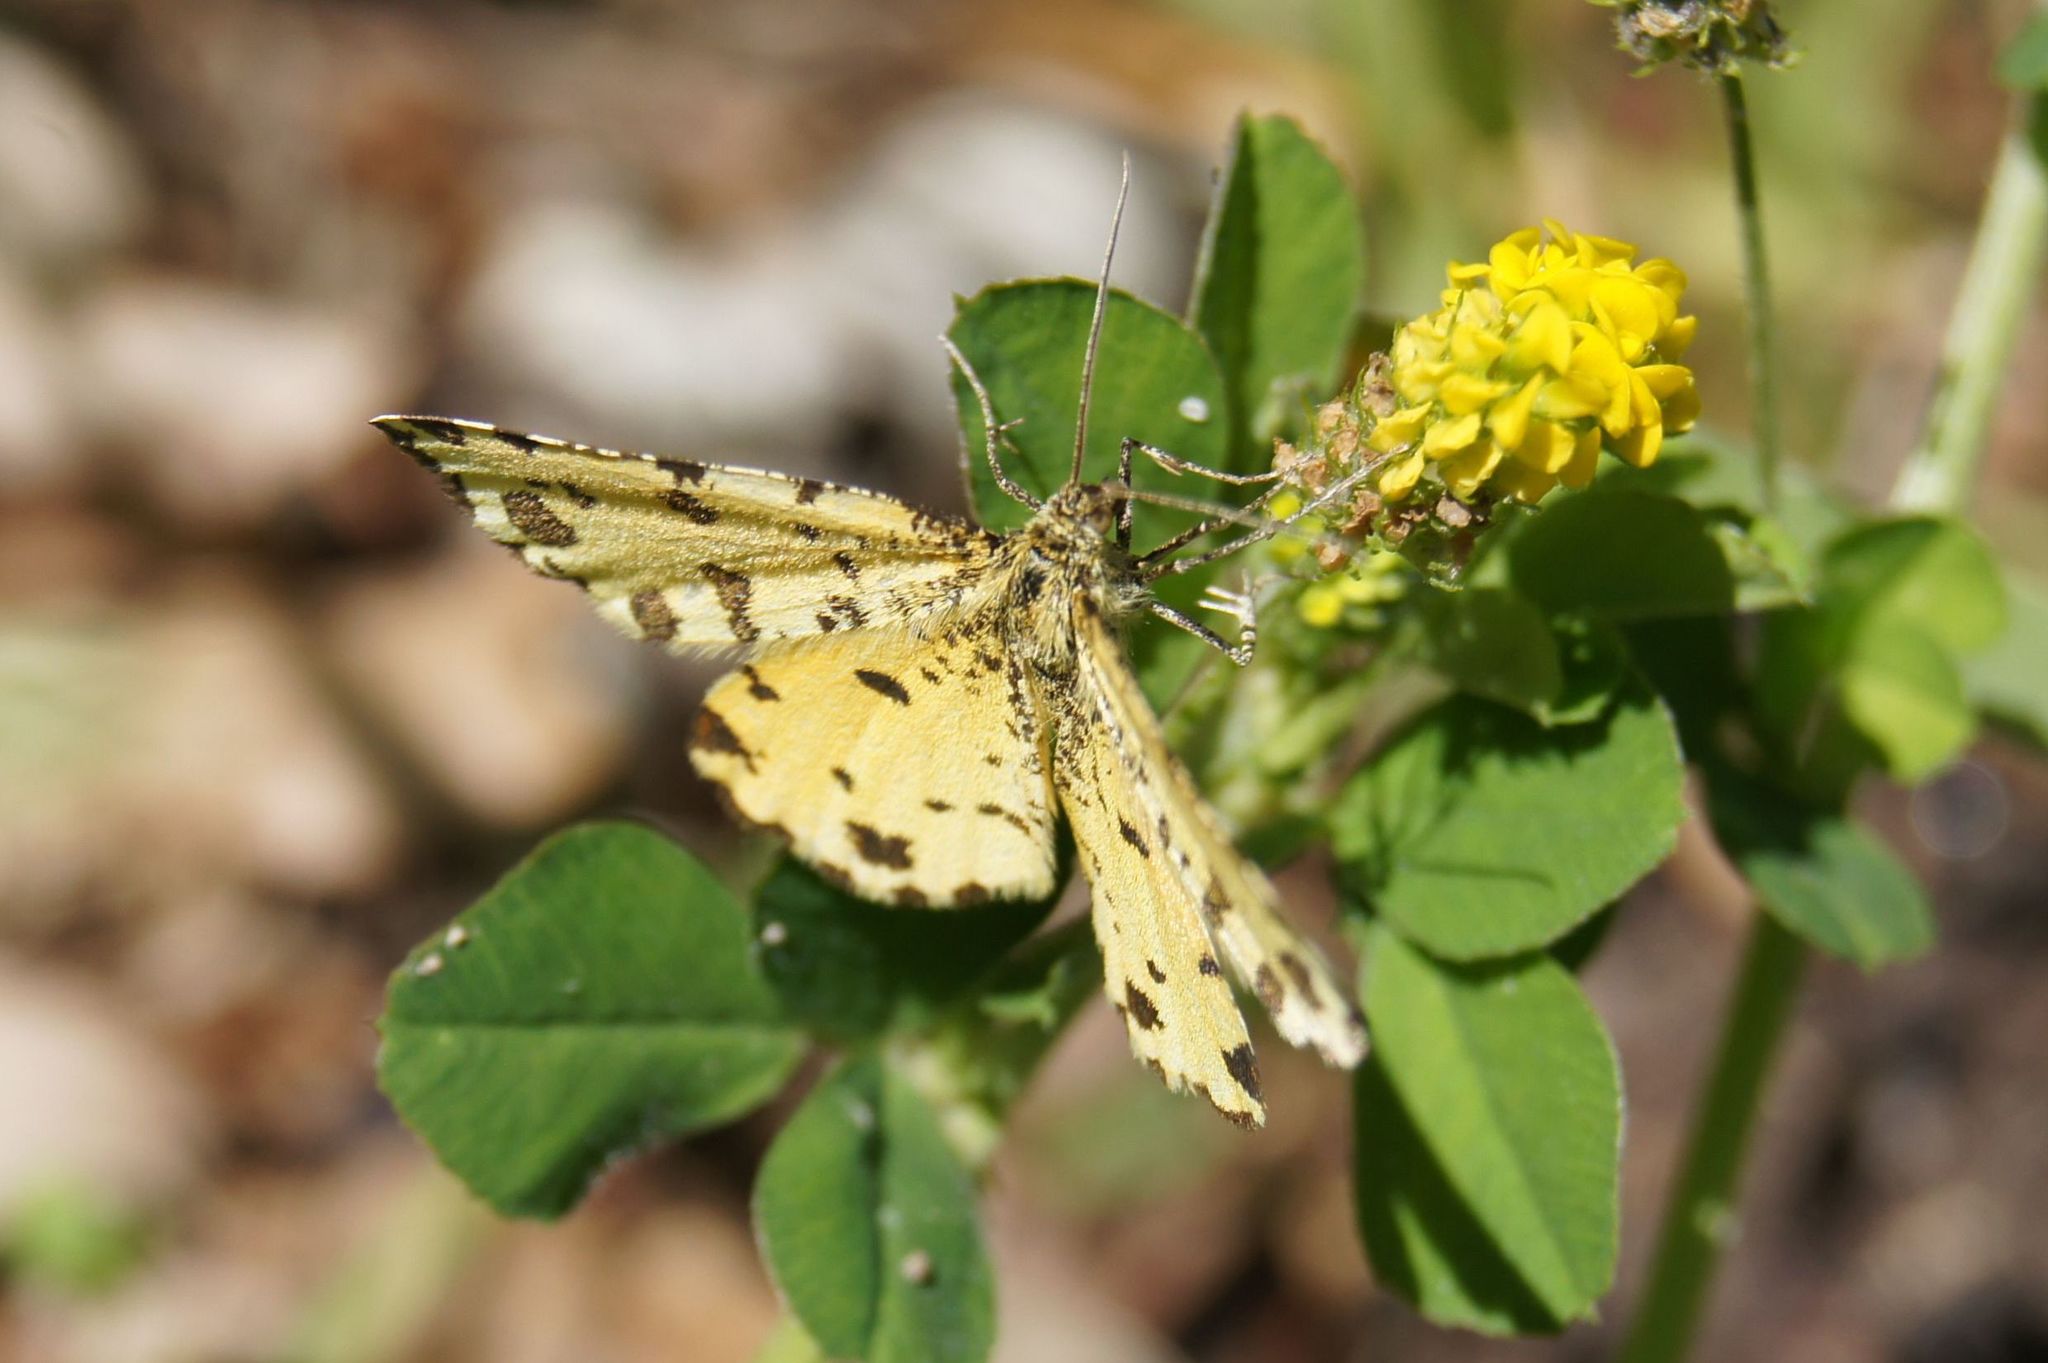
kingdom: Animalia
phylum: Arthropoda
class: Insecta
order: Lepidoptera
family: Geometridae
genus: Pseudopanthera
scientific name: Pseudopanthera macularia
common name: Speckled yellow
